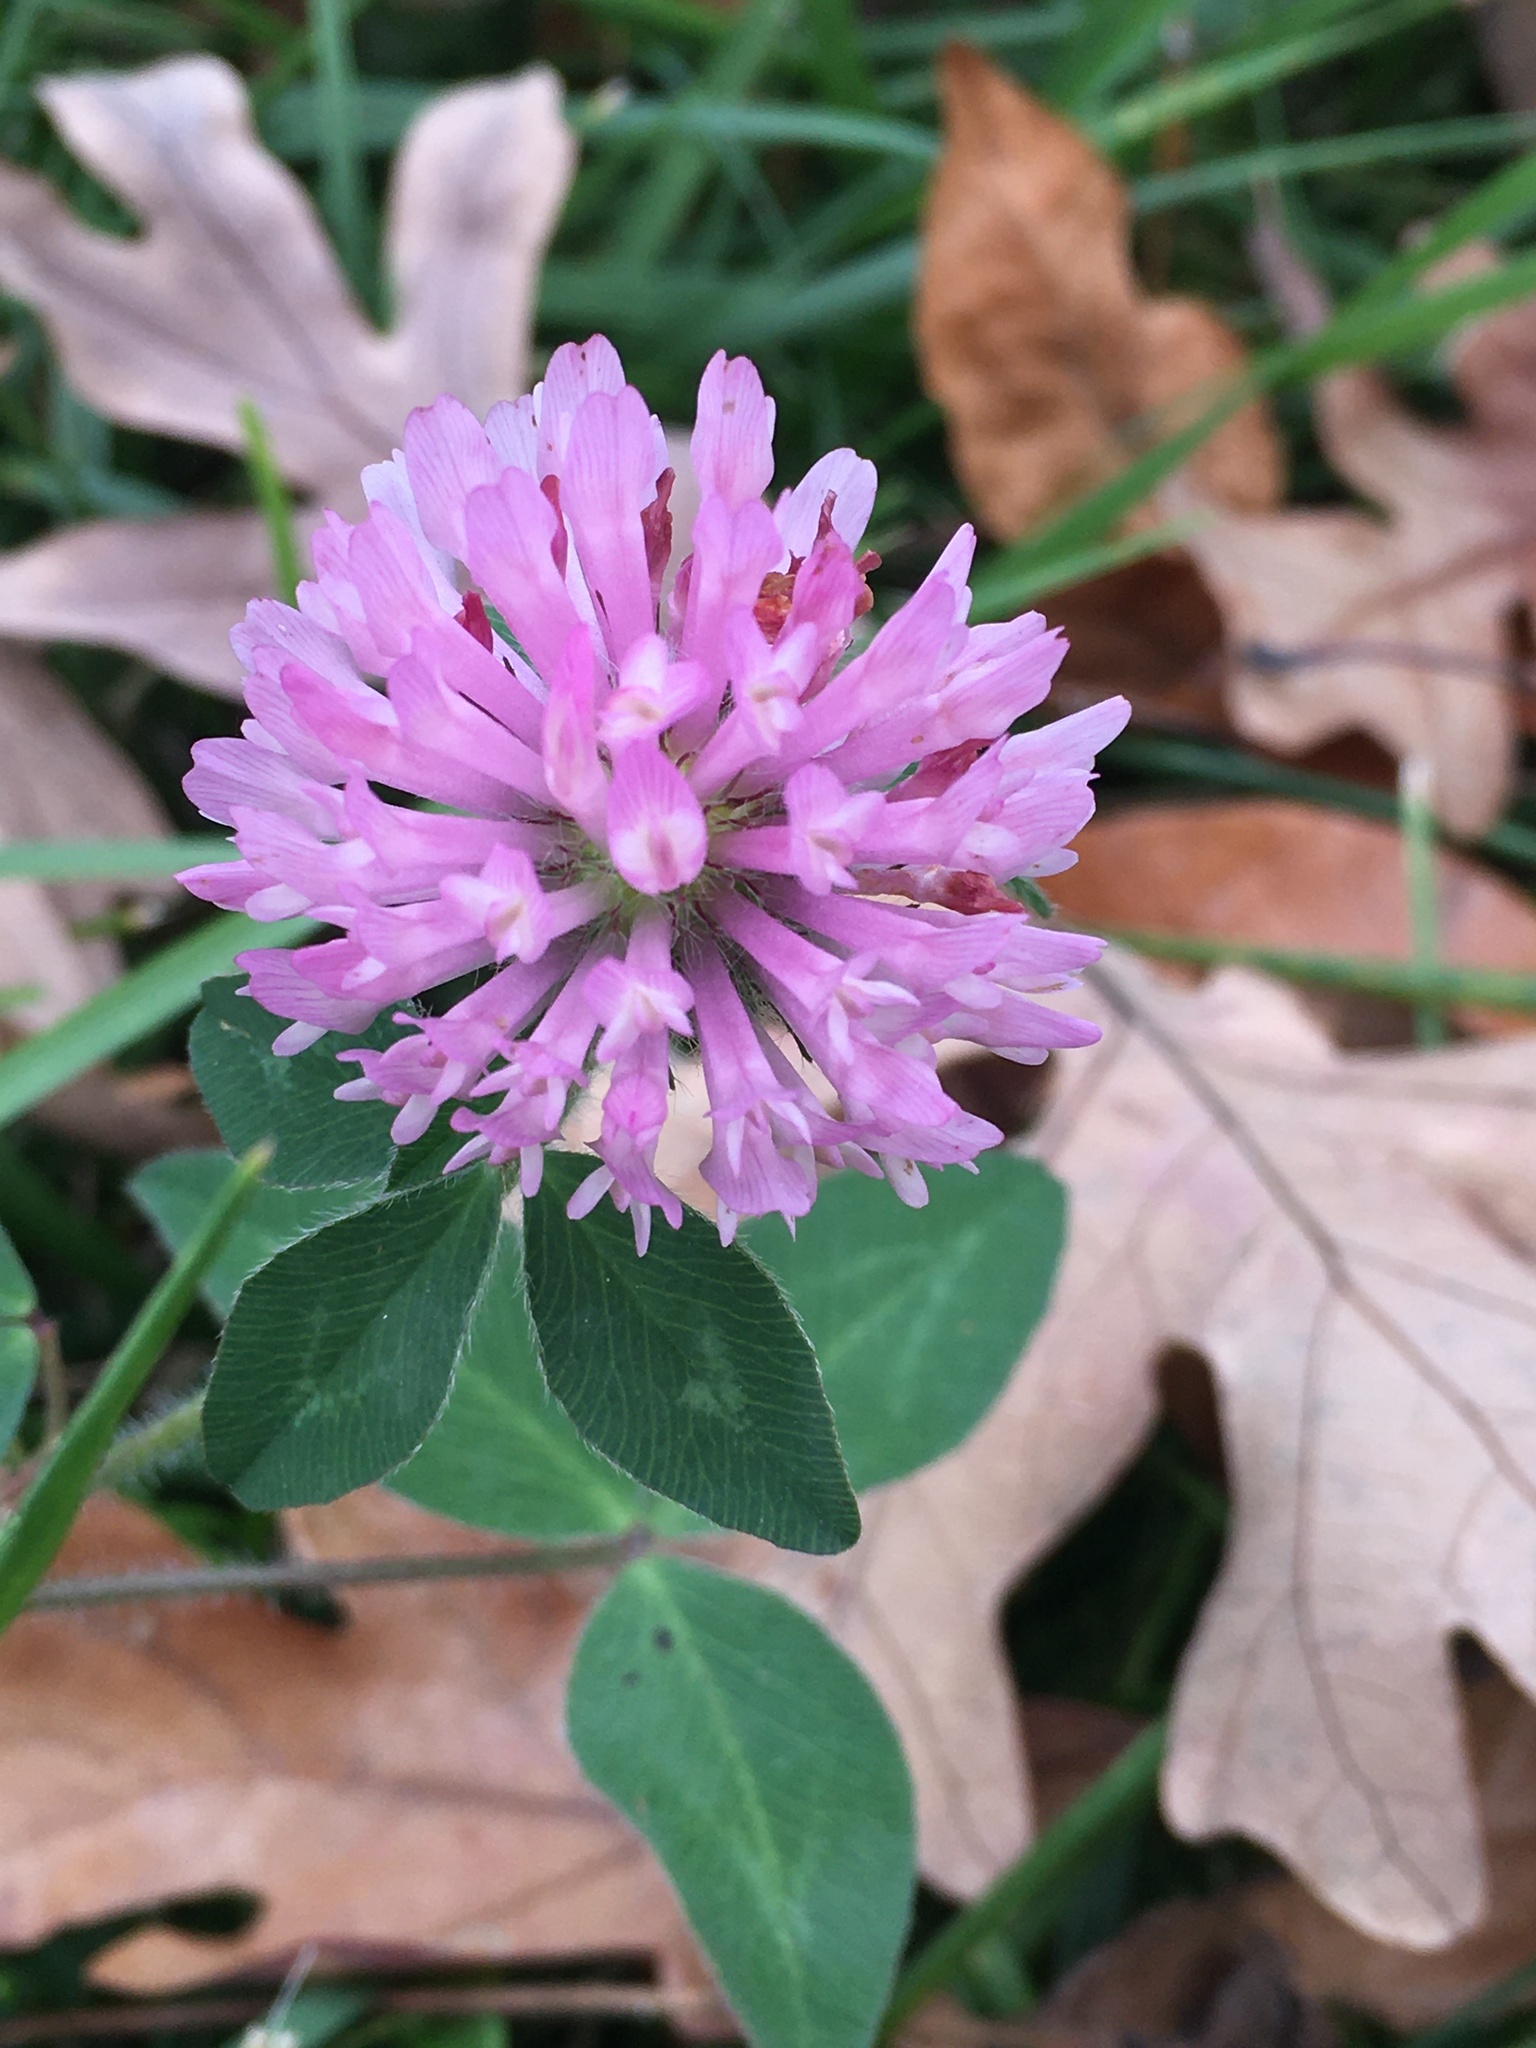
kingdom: Plantae
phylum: Tracheophyta
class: Magnoliopsida
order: Fabales
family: Fabaceae
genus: Trifolium
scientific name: Trifolium pratense
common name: Red clover
